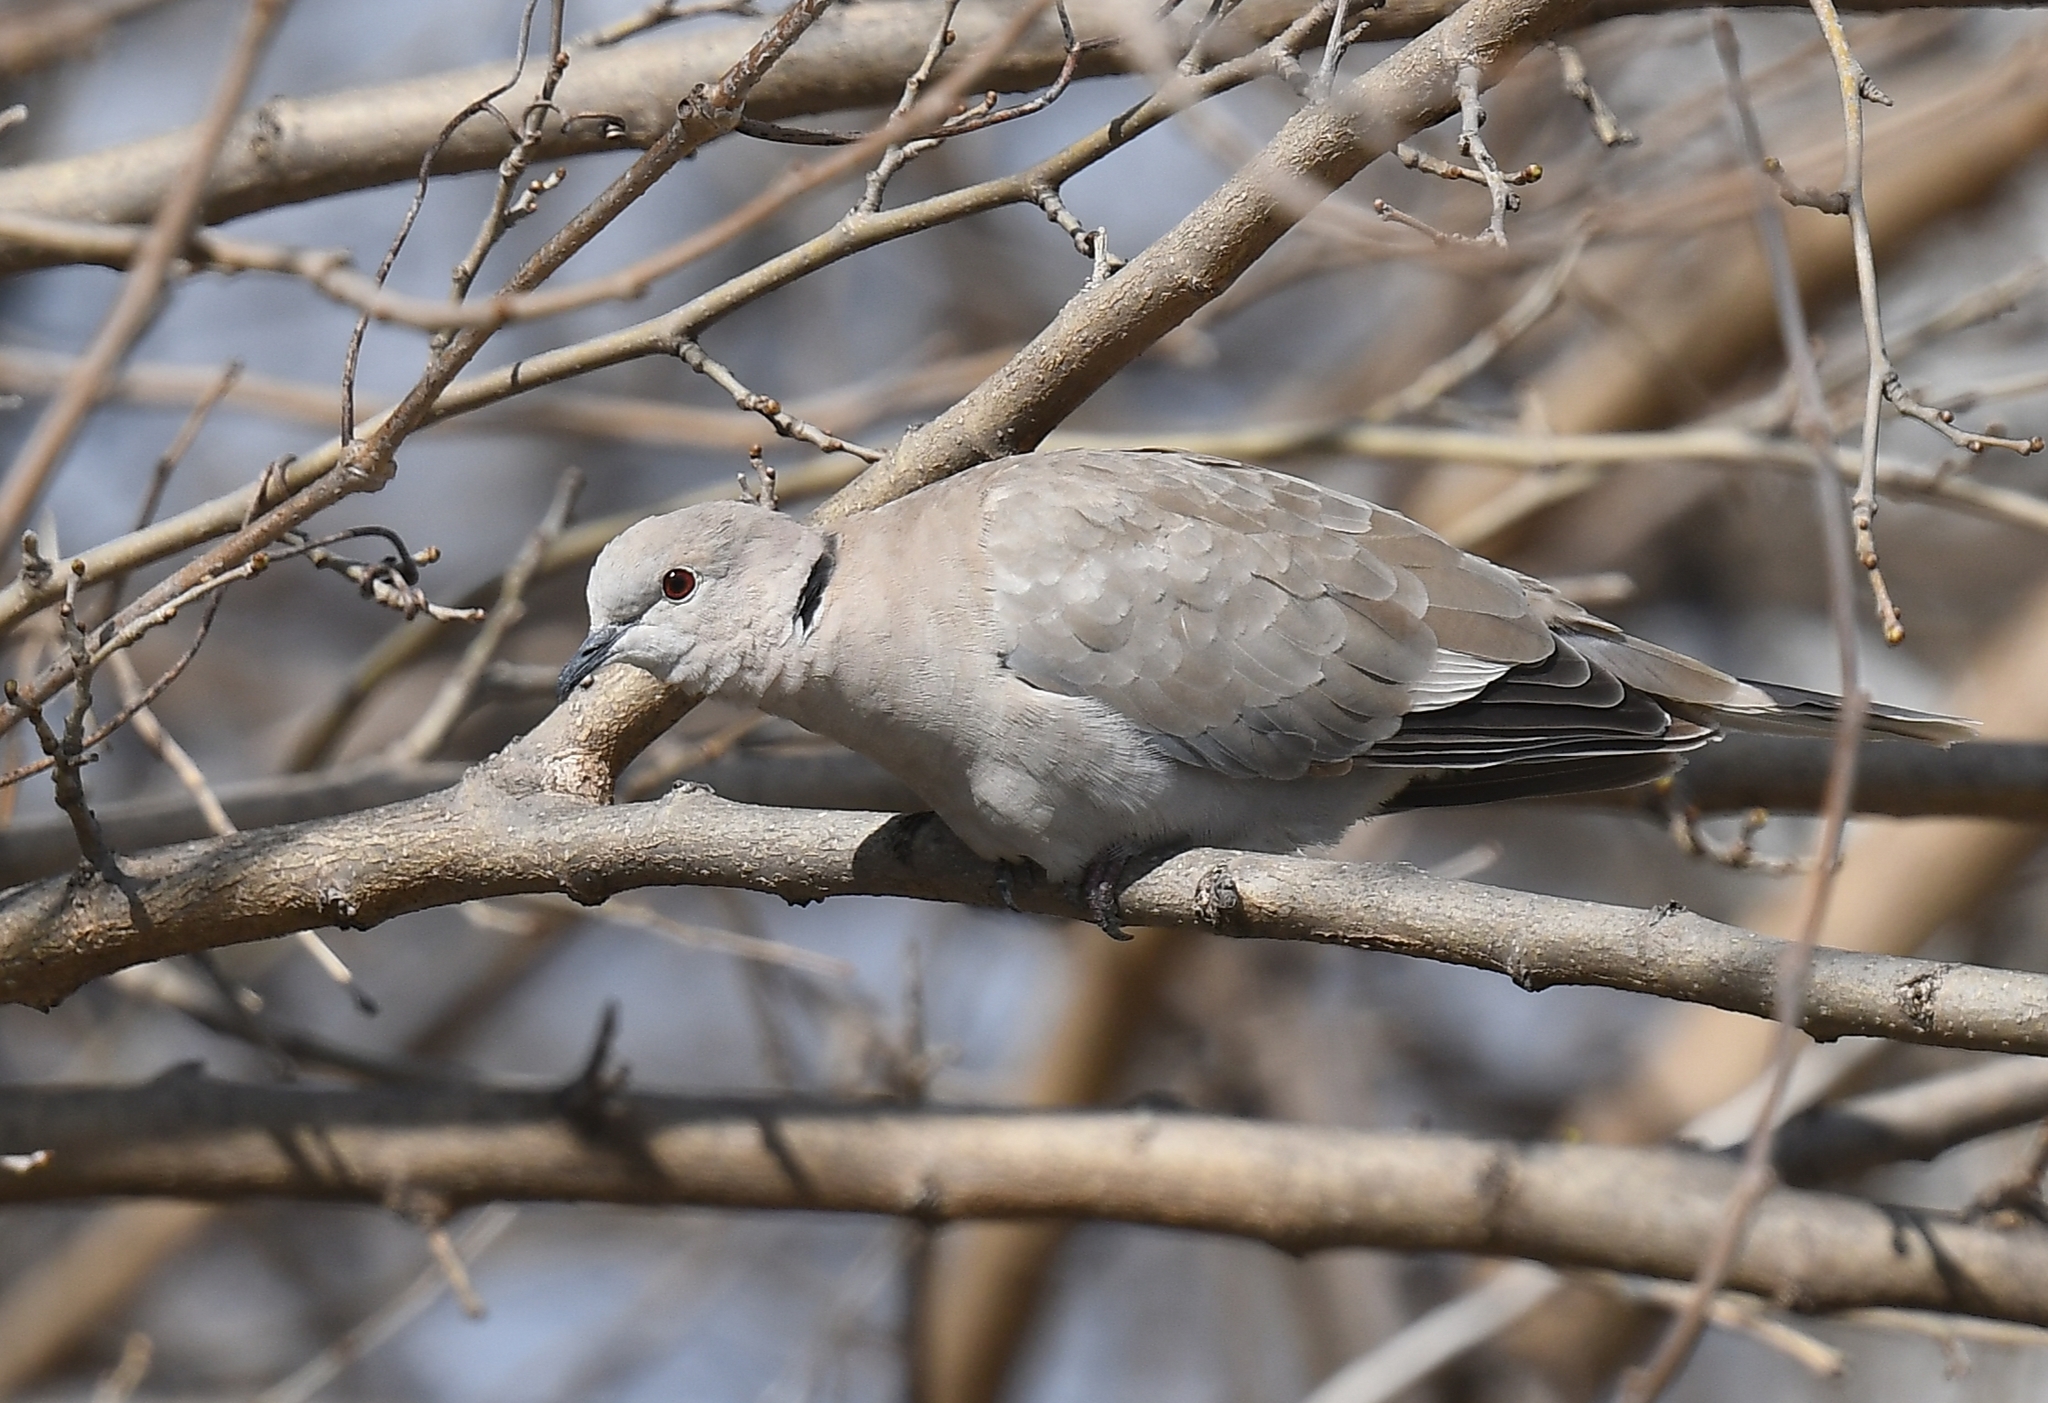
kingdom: Animalia
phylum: Chordata
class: Aves
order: Columbiformes
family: Columbidae
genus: Streptopelia
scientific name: Streptopelia decaocto
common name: Eurasian collared dove
